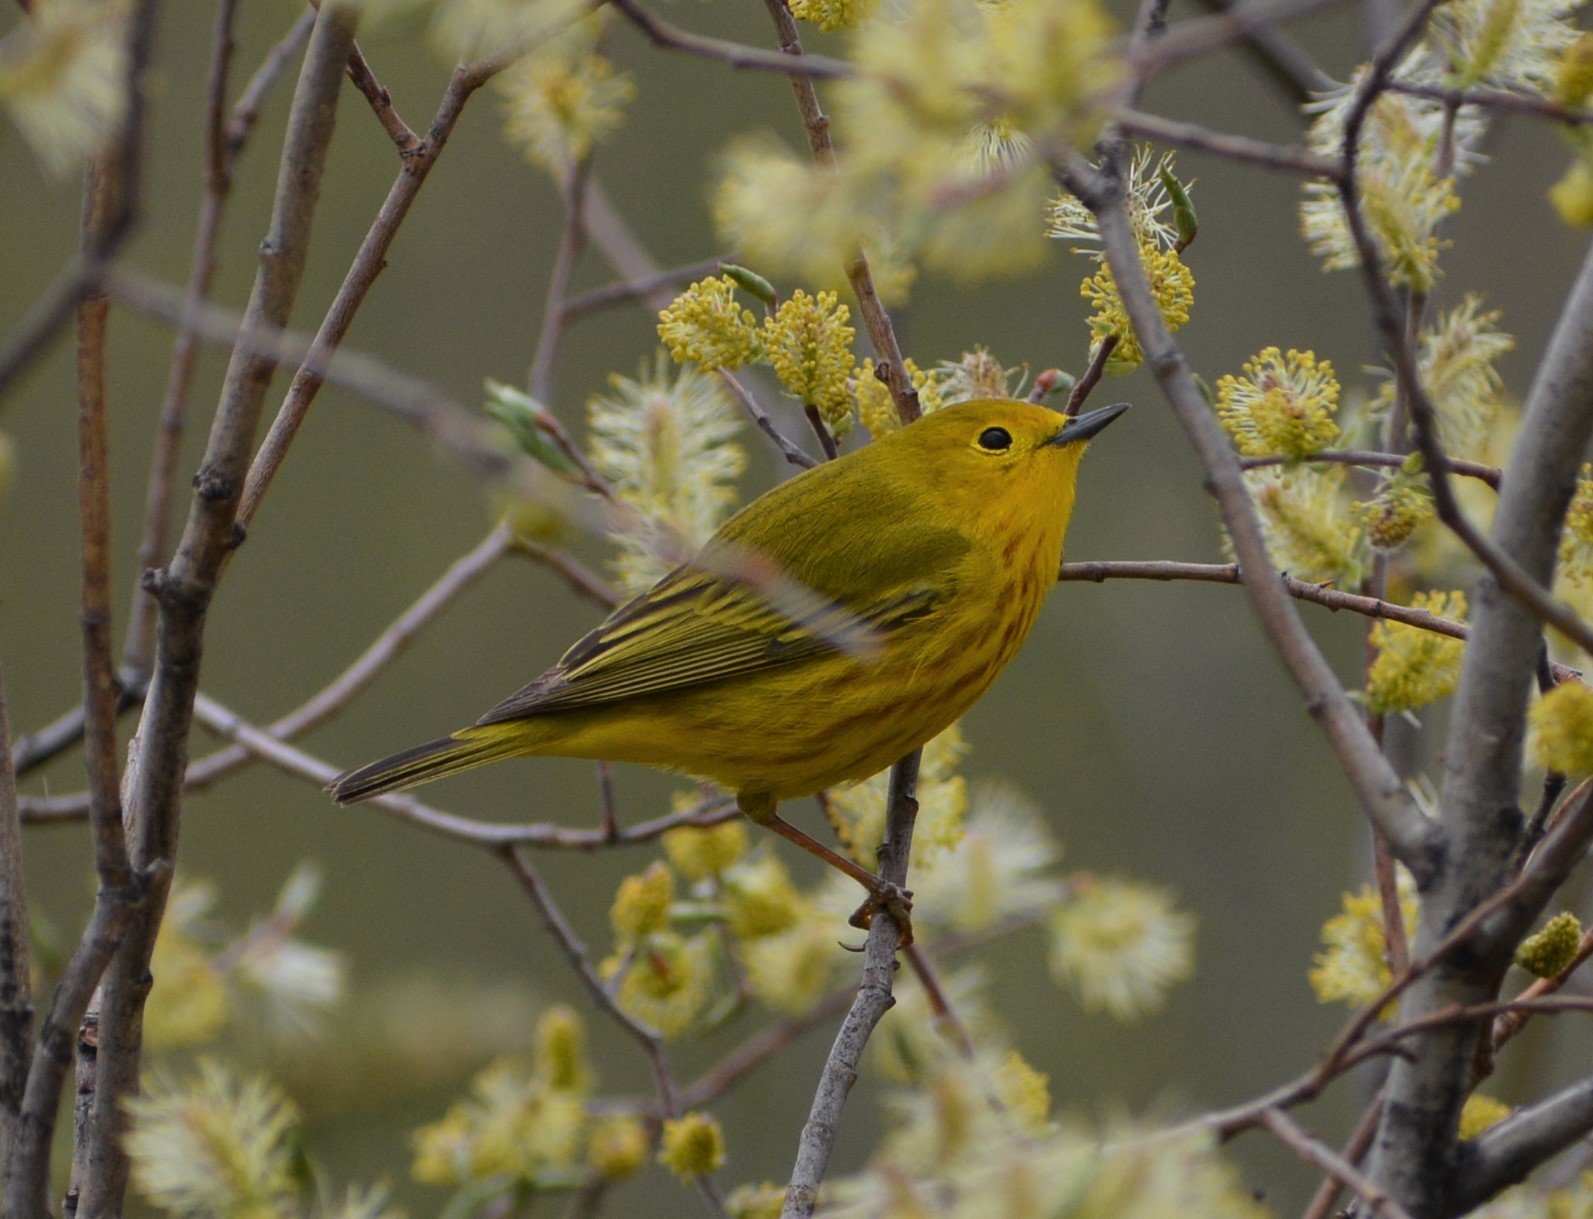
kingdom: Animalia
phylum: Chordata
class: Aves
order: Passeriformes
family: Parulidae
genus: Setophaga
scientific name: Setophaga petechia
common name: Yellow warbler
